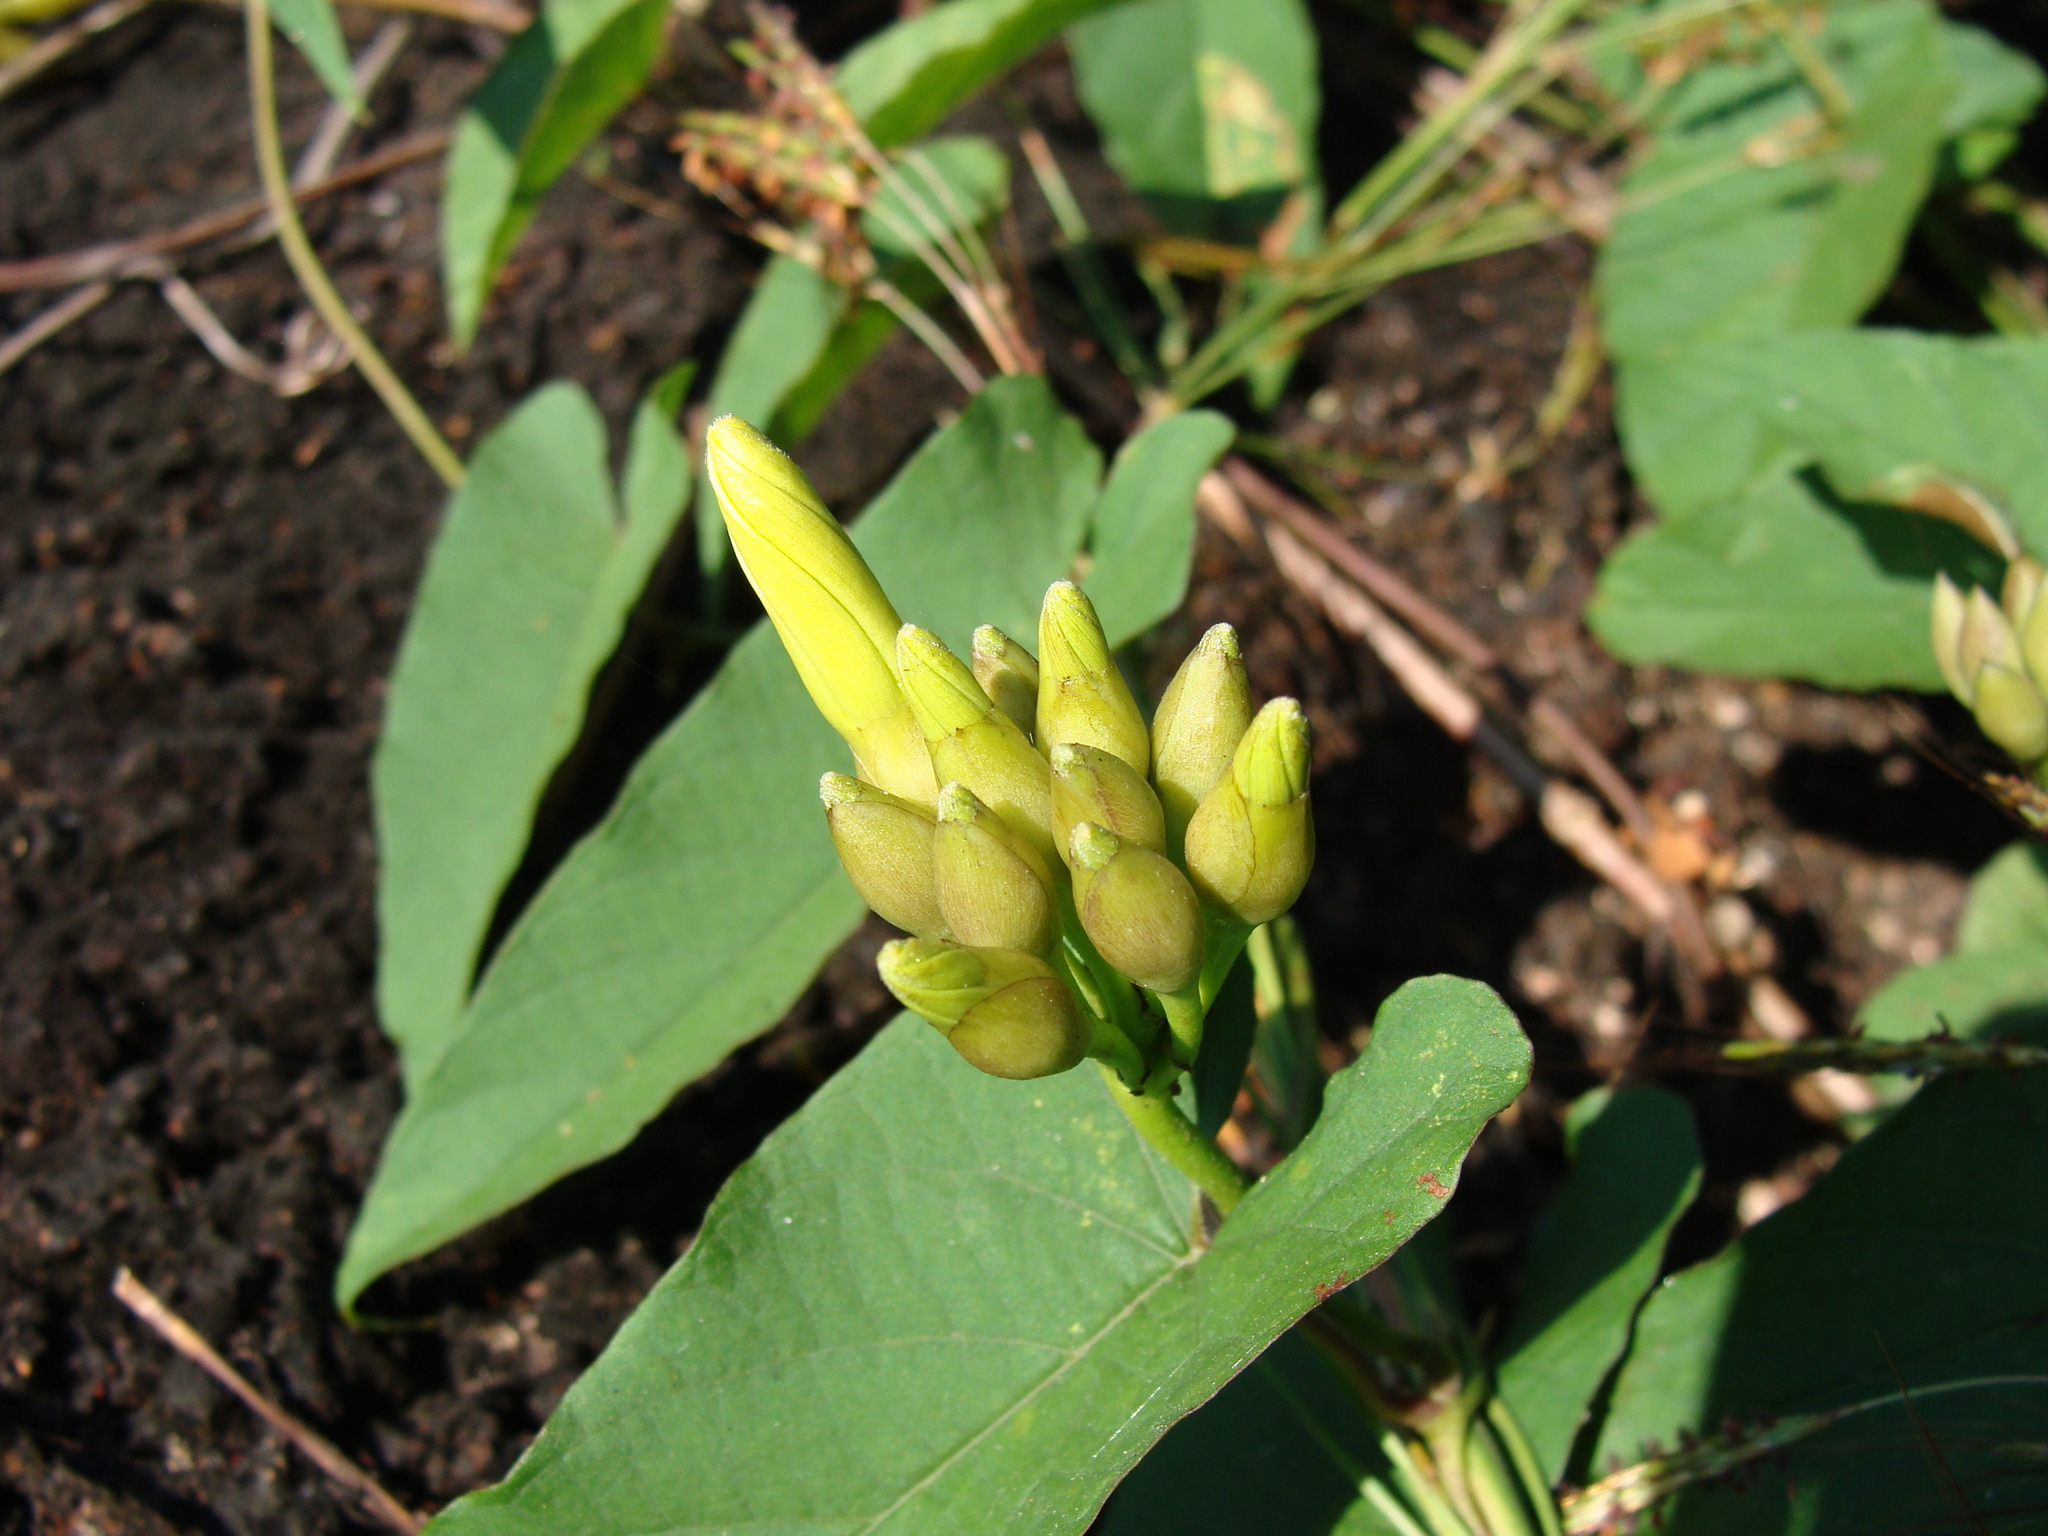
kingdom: Plantae
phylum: Tracheophyta
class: Magnoliopsida
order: Solanales
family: Convolvulaceae
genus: Camonea
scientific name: Camonea umbellata
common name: Hogvine
